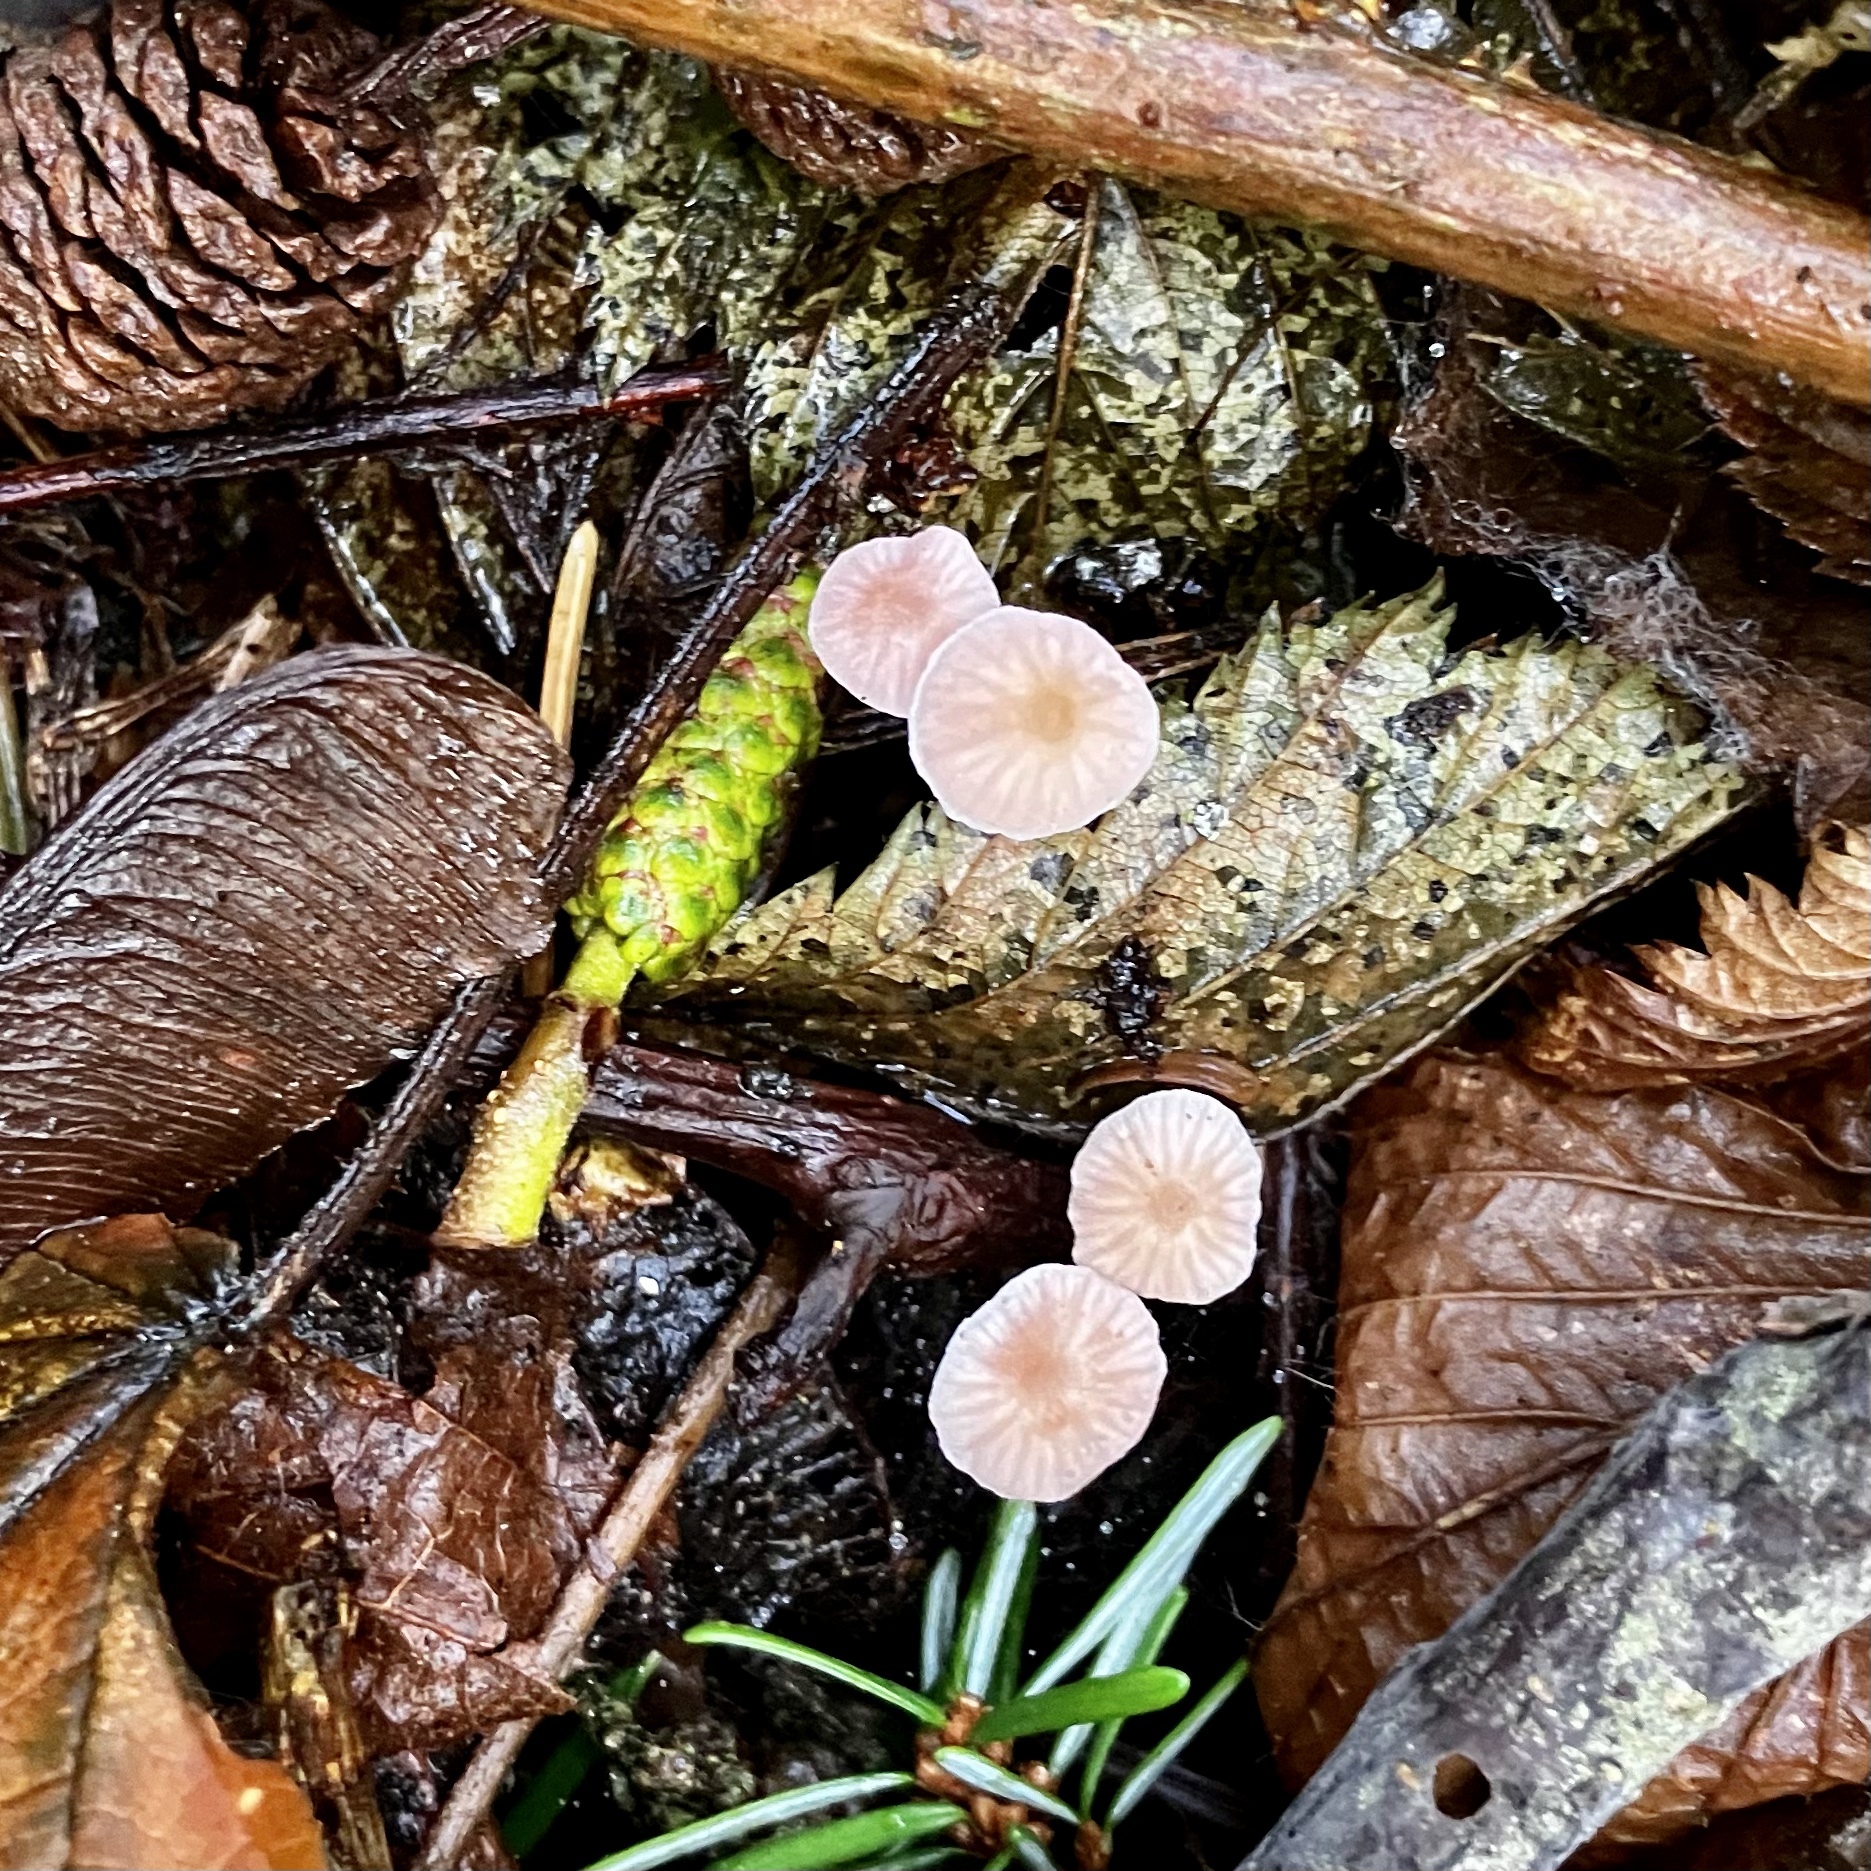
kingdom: Fungi
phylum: Basidiomycota
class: Agaricomycetes
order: Agaricales
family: Mycenaceae
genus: Atheniella
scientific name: Atheniella adonis
